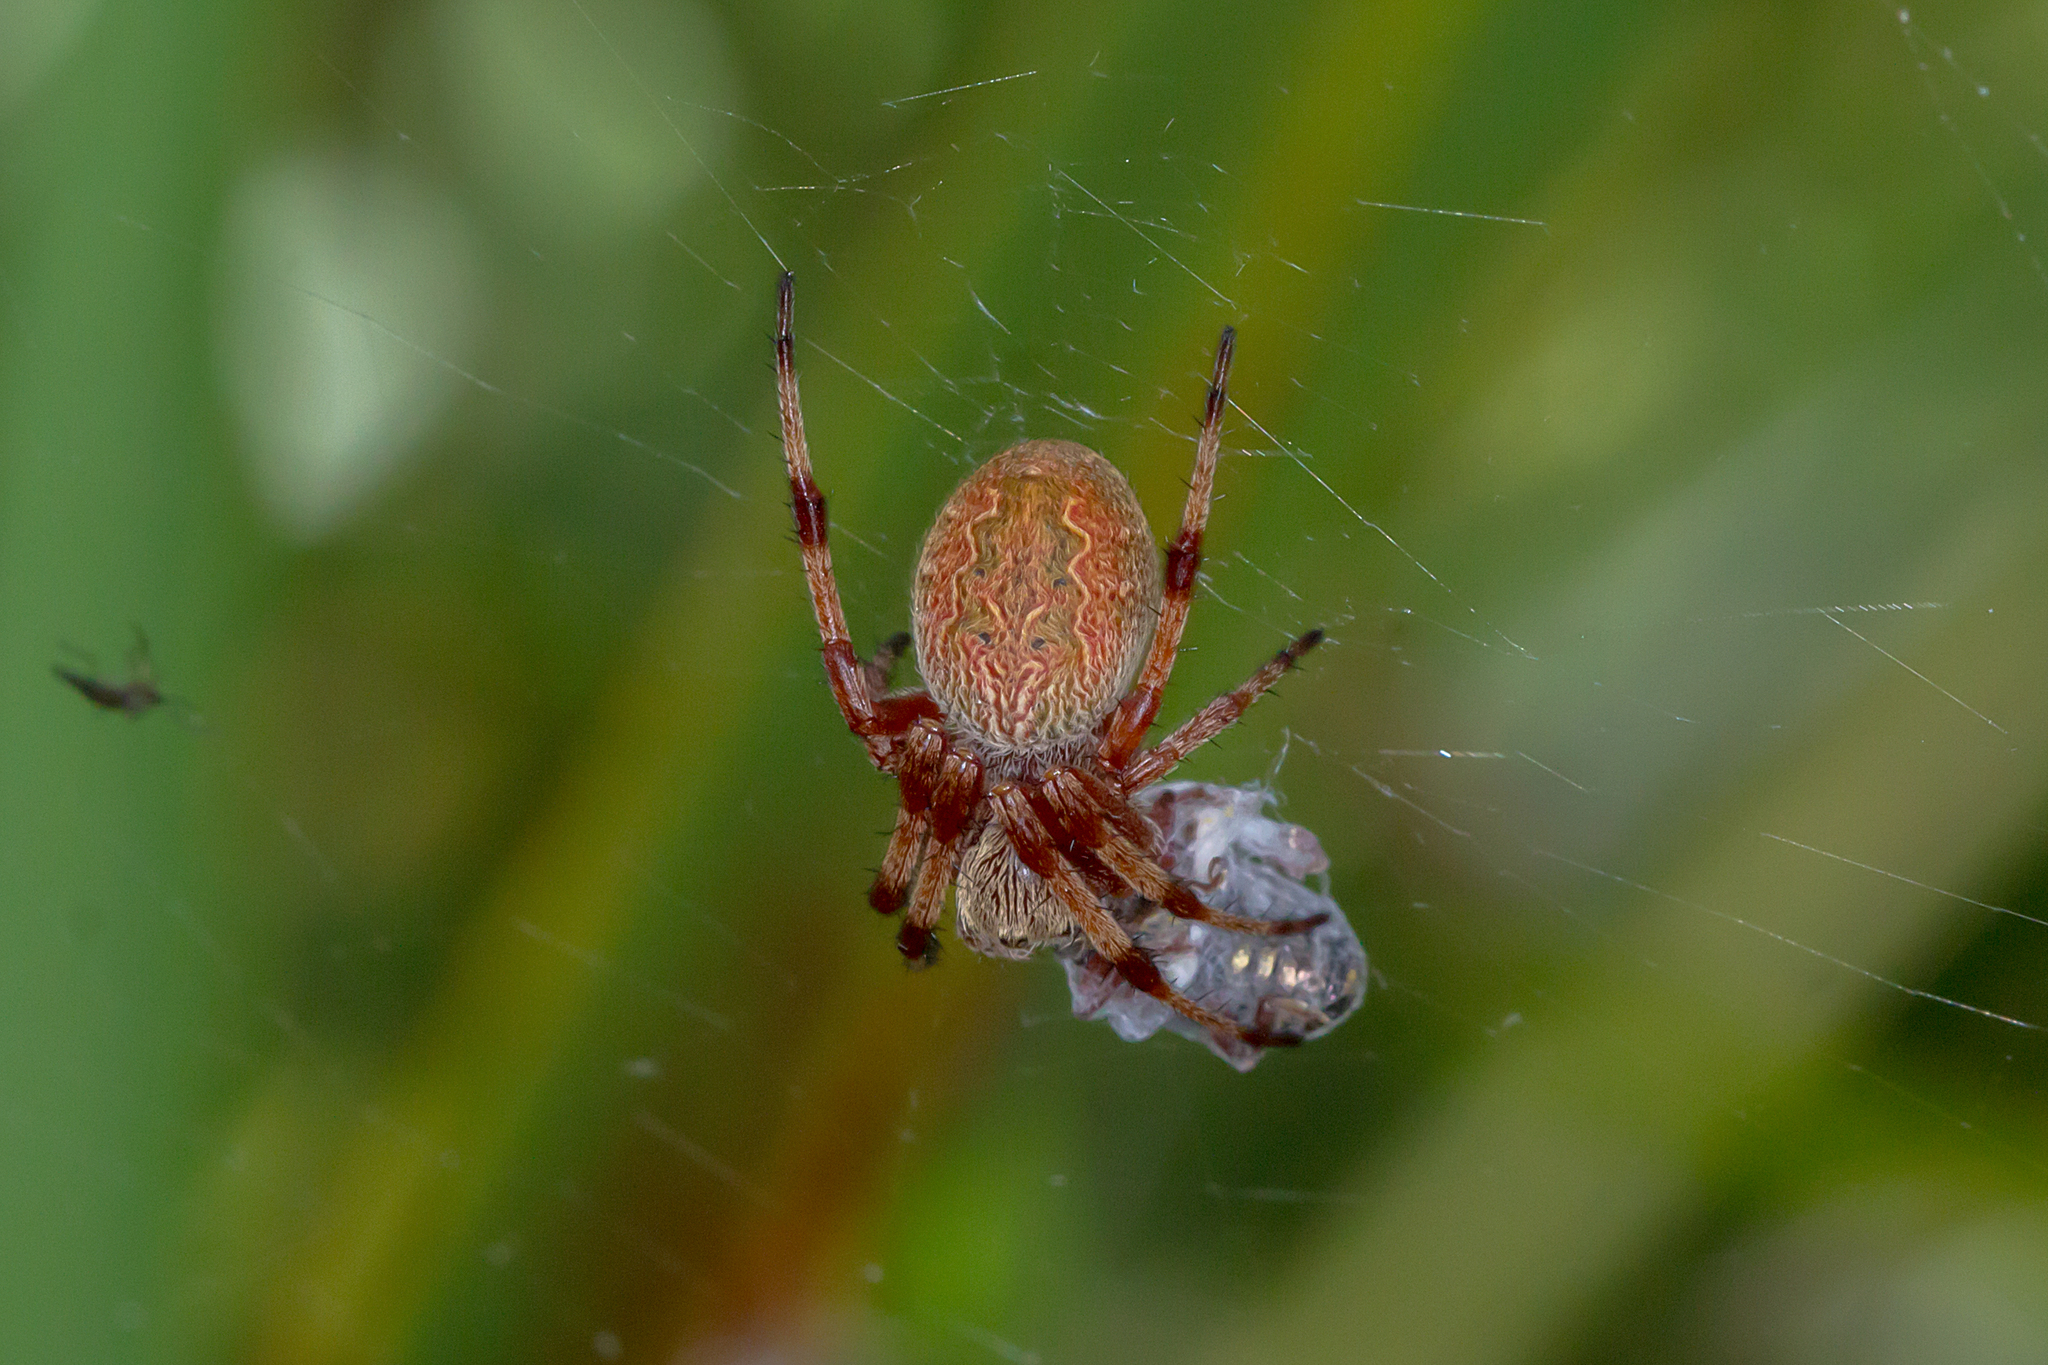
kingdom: Animalia
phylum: Arthropoda
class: Arachnida
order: Araneae
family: Araneidae
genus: Salsa
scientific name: Salsa fuliginata
